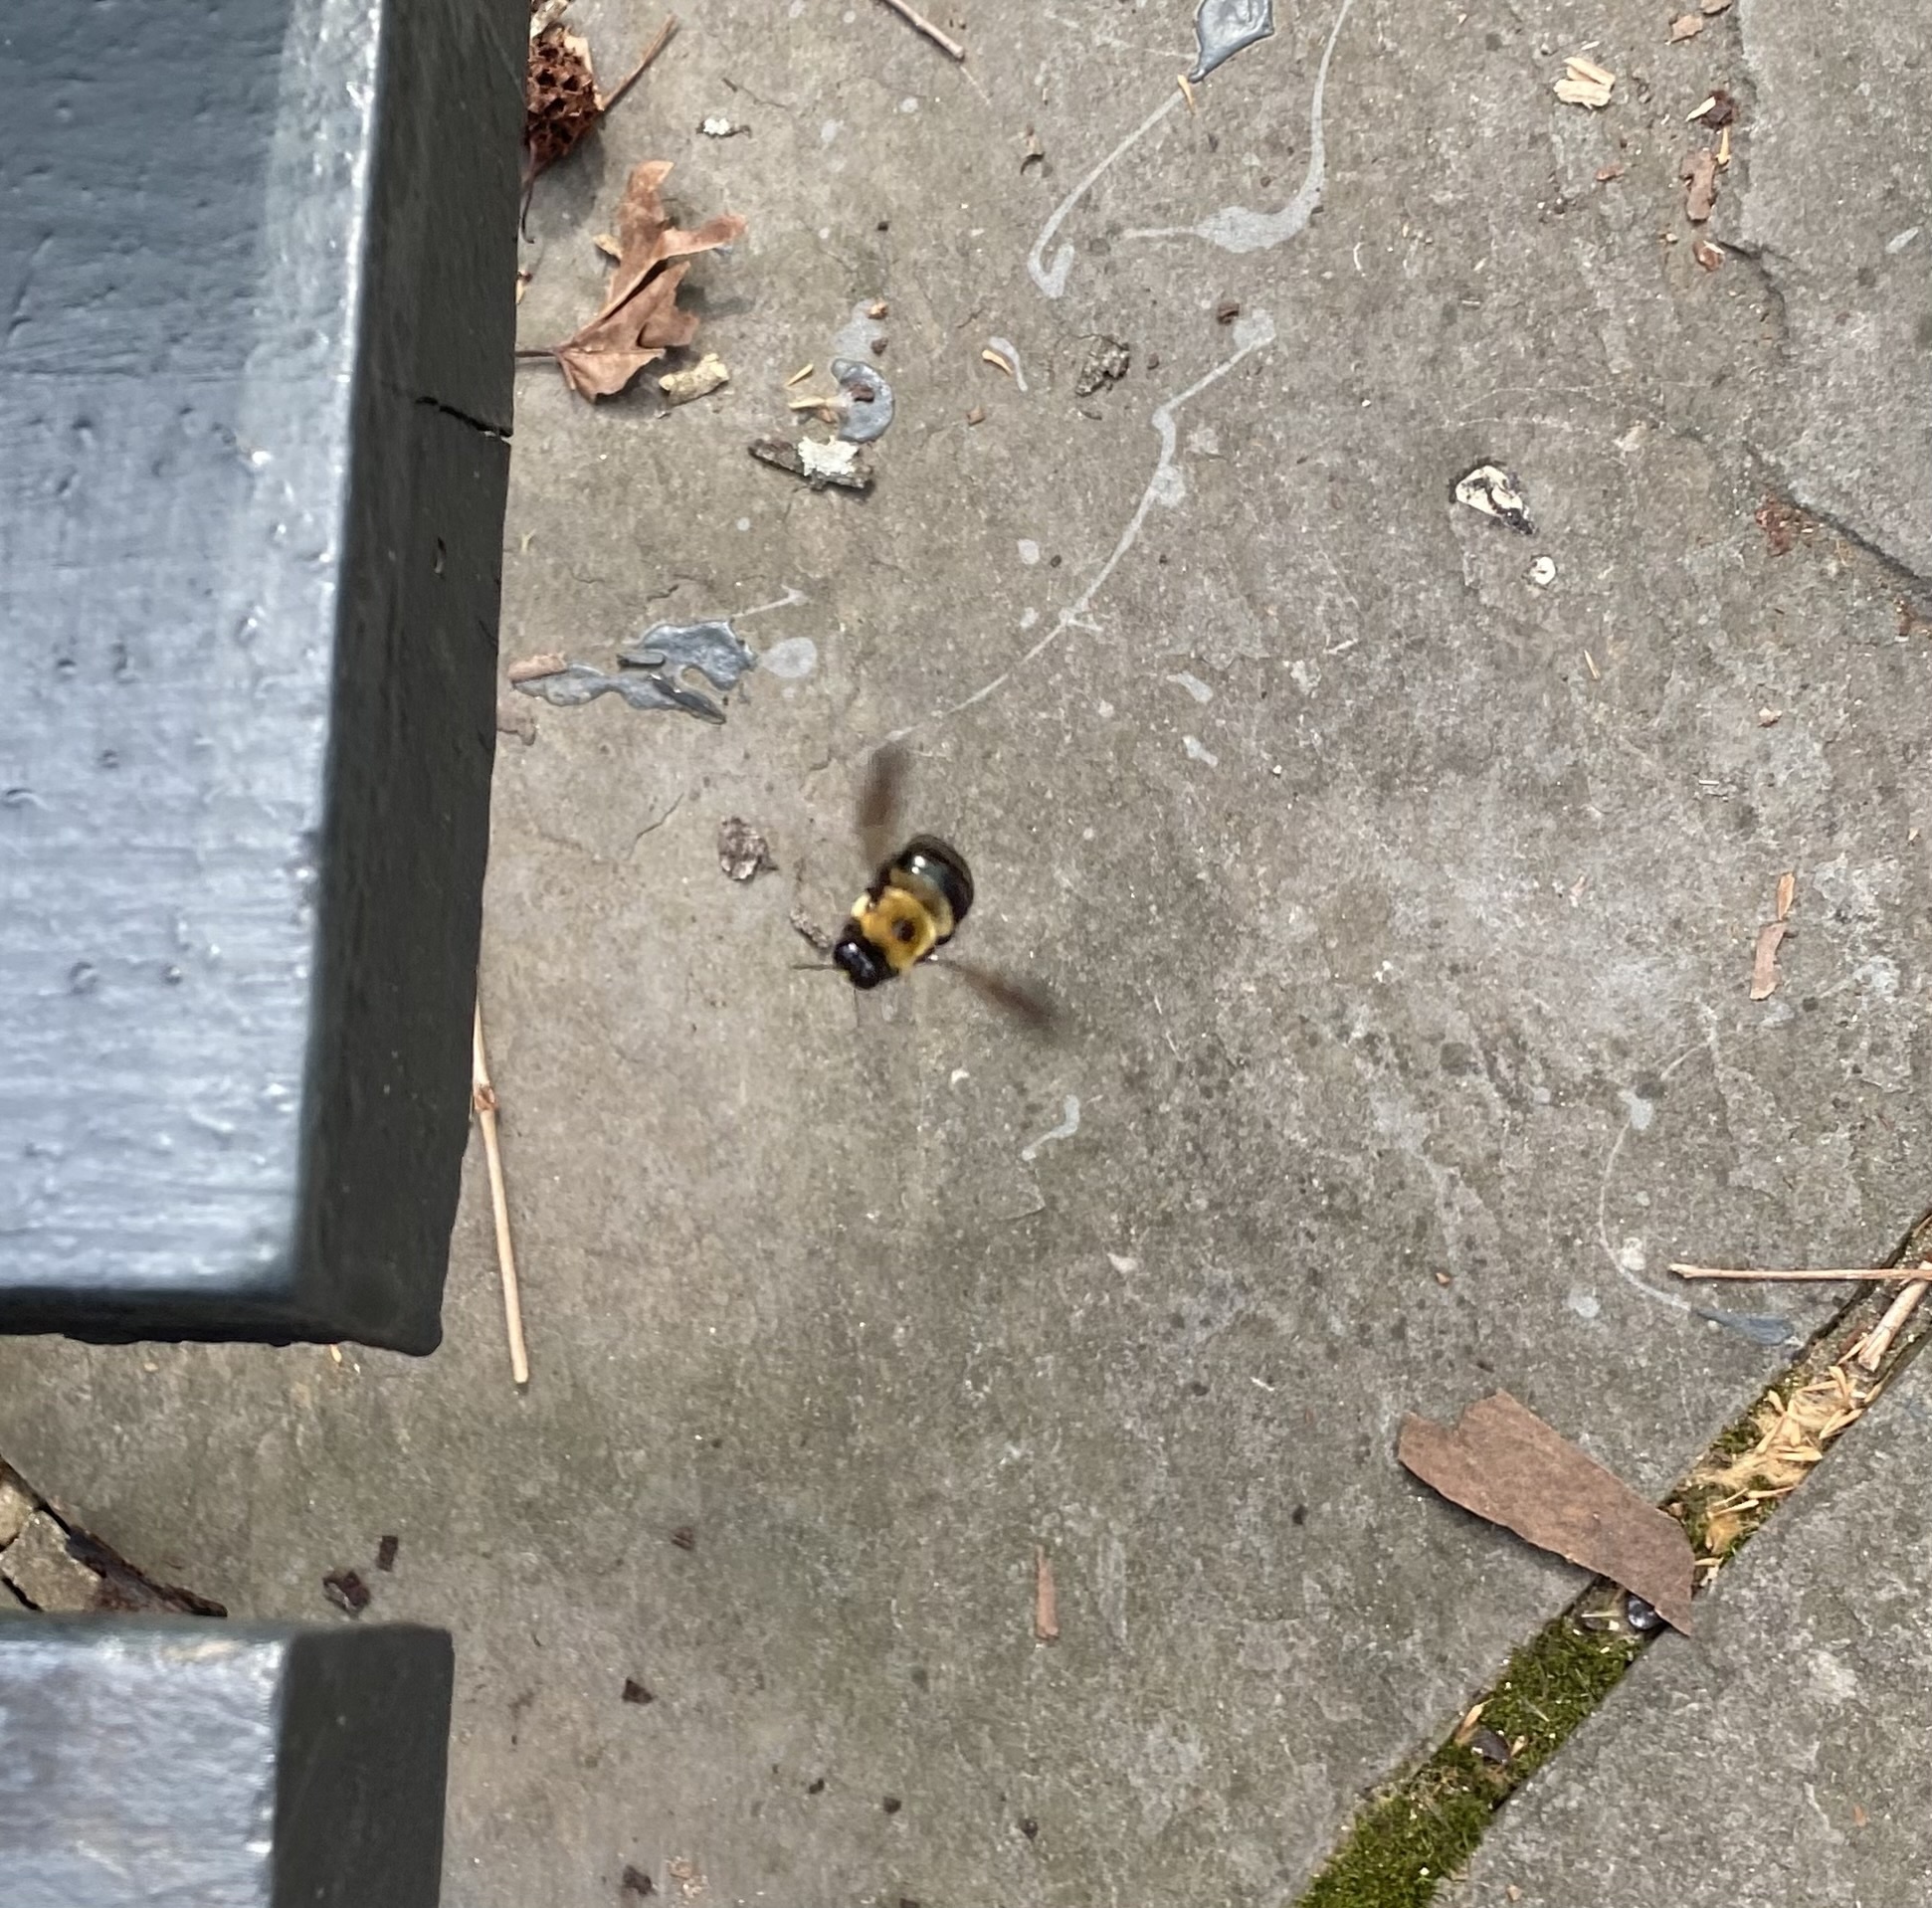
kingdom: Animalia
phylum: Arthropoda
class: Insecta
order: Hymenoptera
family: Apidae
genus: Xylocopa
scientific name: Xylocopa virginica
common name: Carpenter bee
